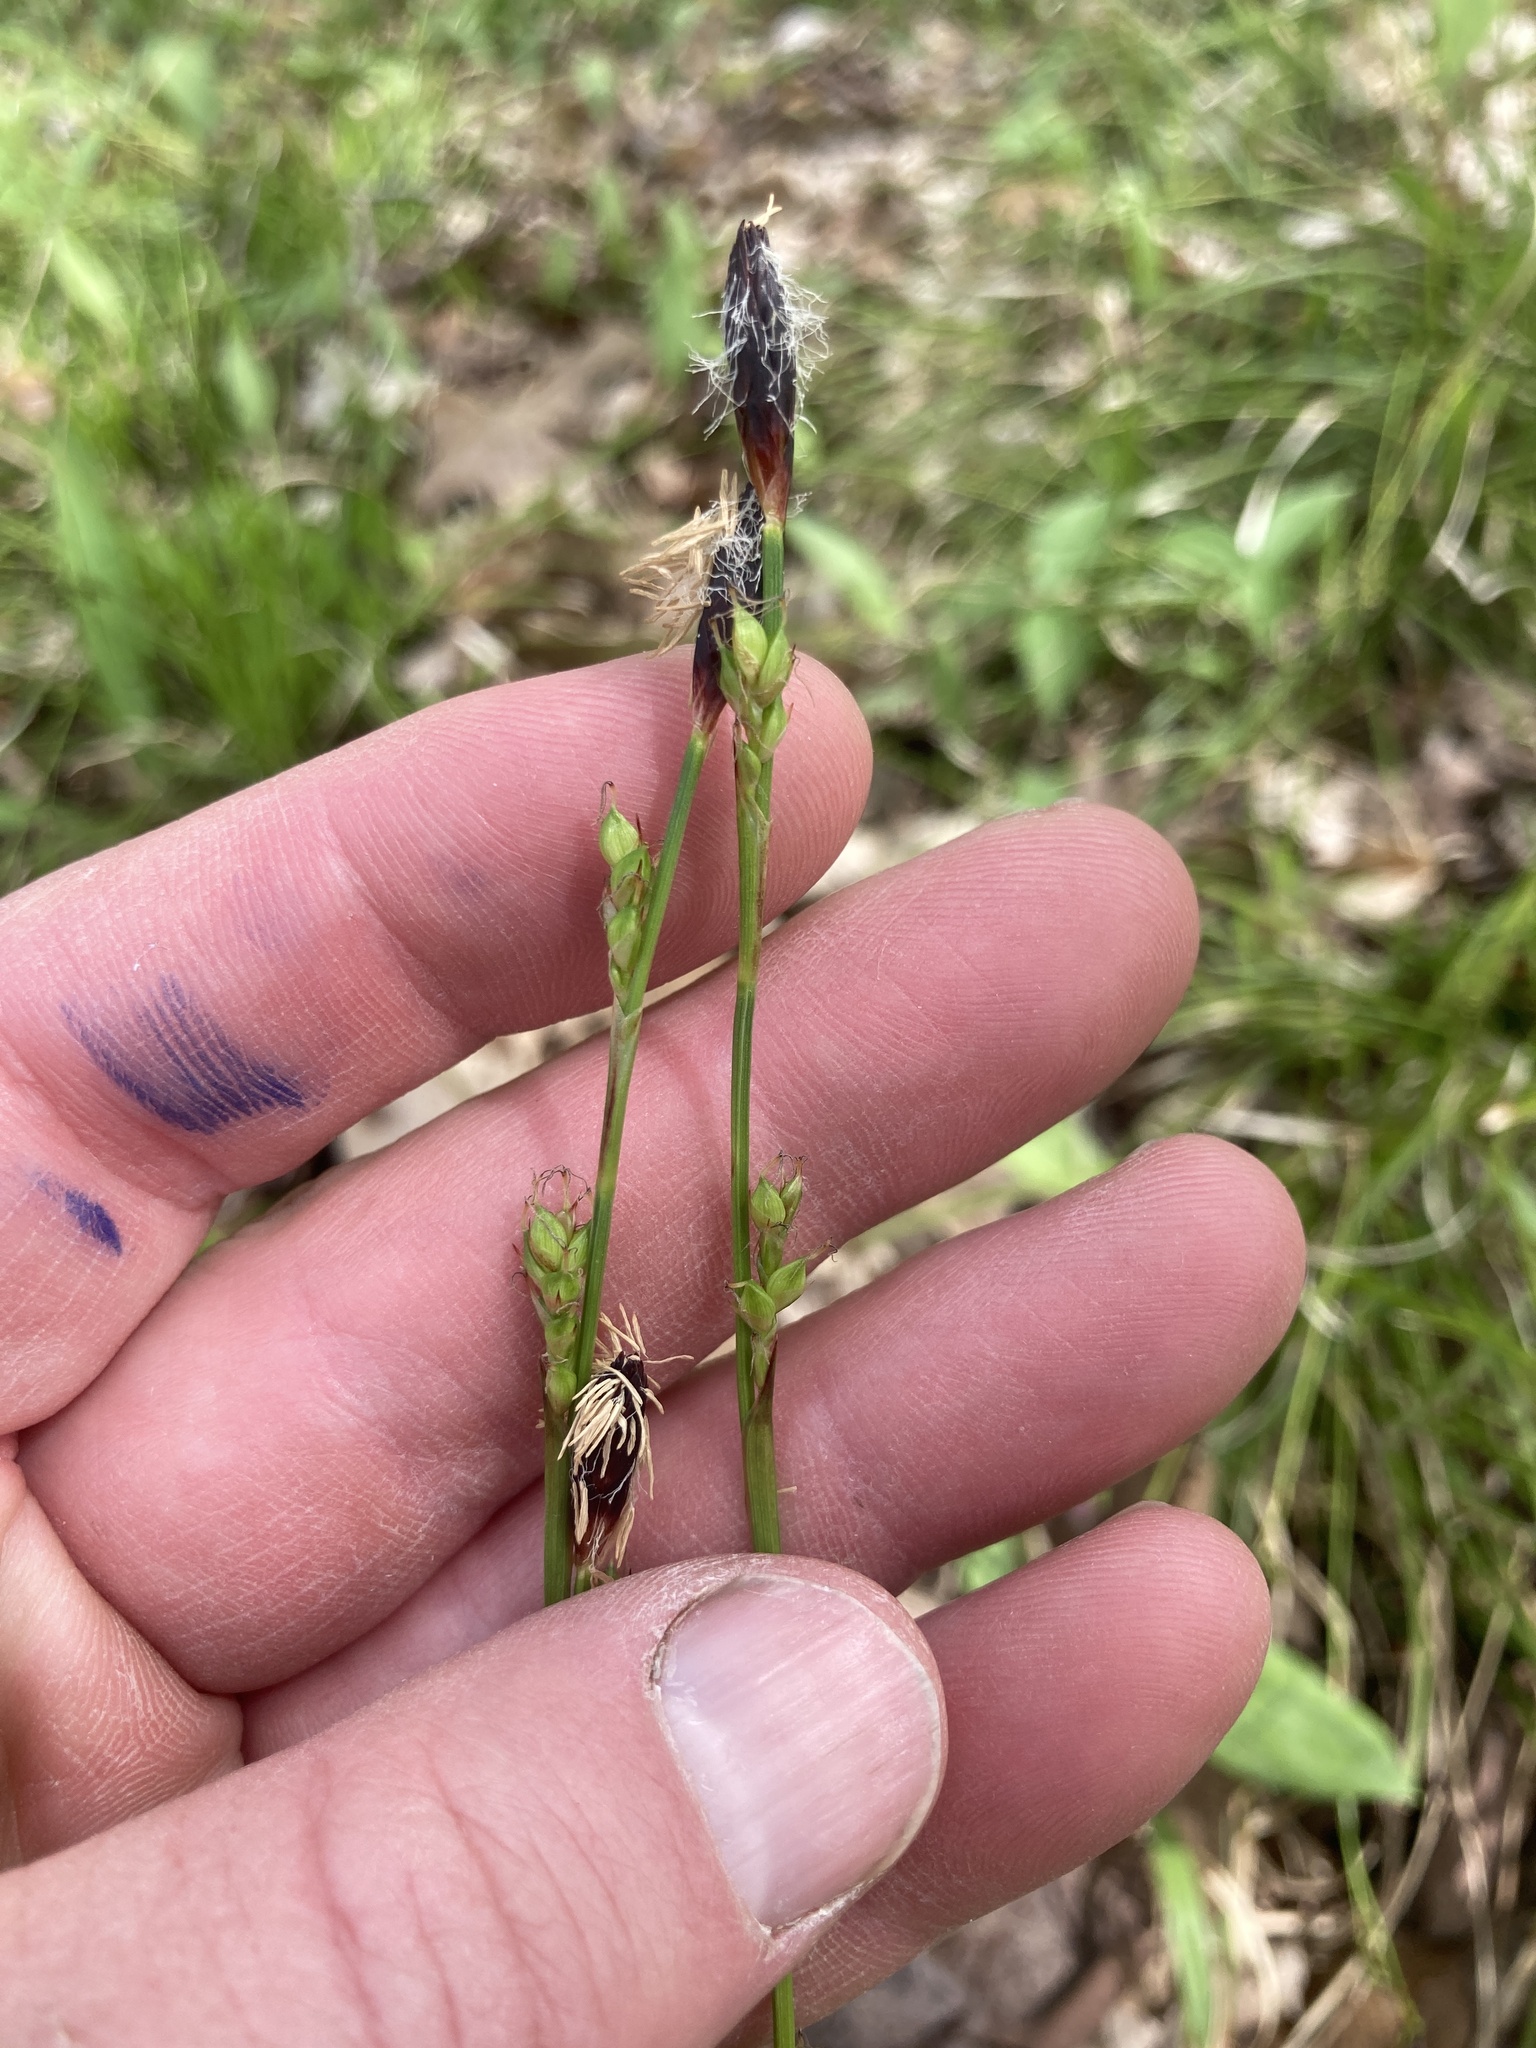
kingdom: Plantae
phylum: Tracheophyta
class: Liliopsida
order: Poales
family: Cyperaceae
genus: Carex
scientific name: Carex plantaginea
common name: Plantain-leaved sedge
